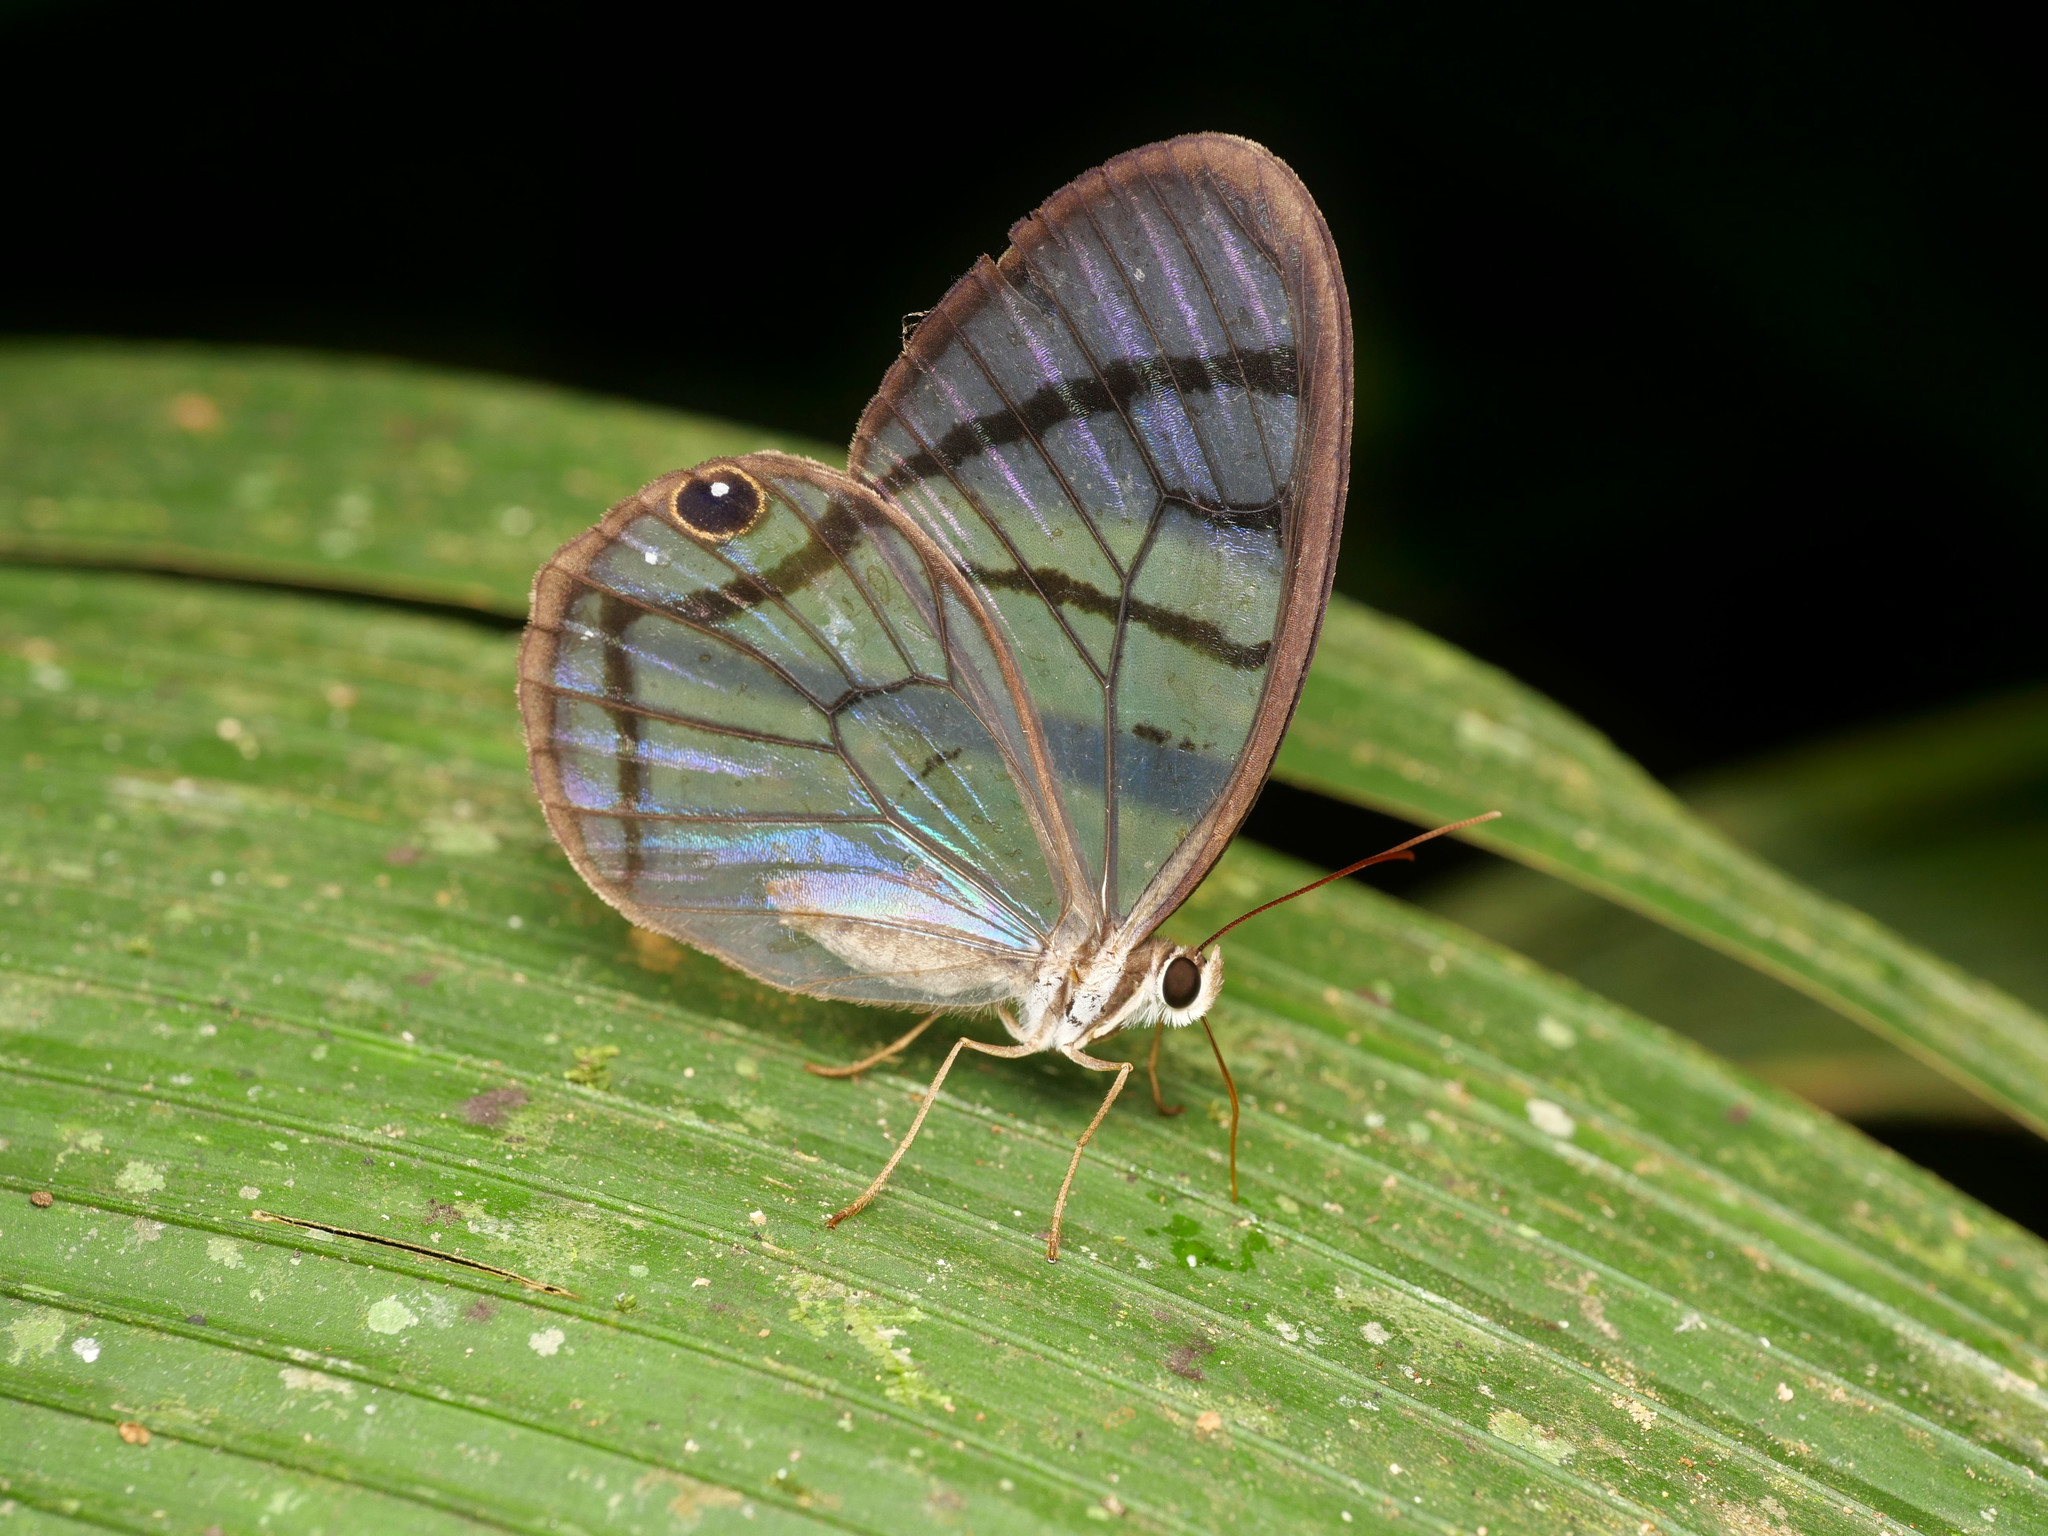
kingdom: Animalia
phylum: Arthropoda
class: Insecta
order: Lepidoptera
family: Nymphalidae
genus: Dulcedo
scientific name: Dulcedo polita
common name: Uncolored clearwing-satyr
